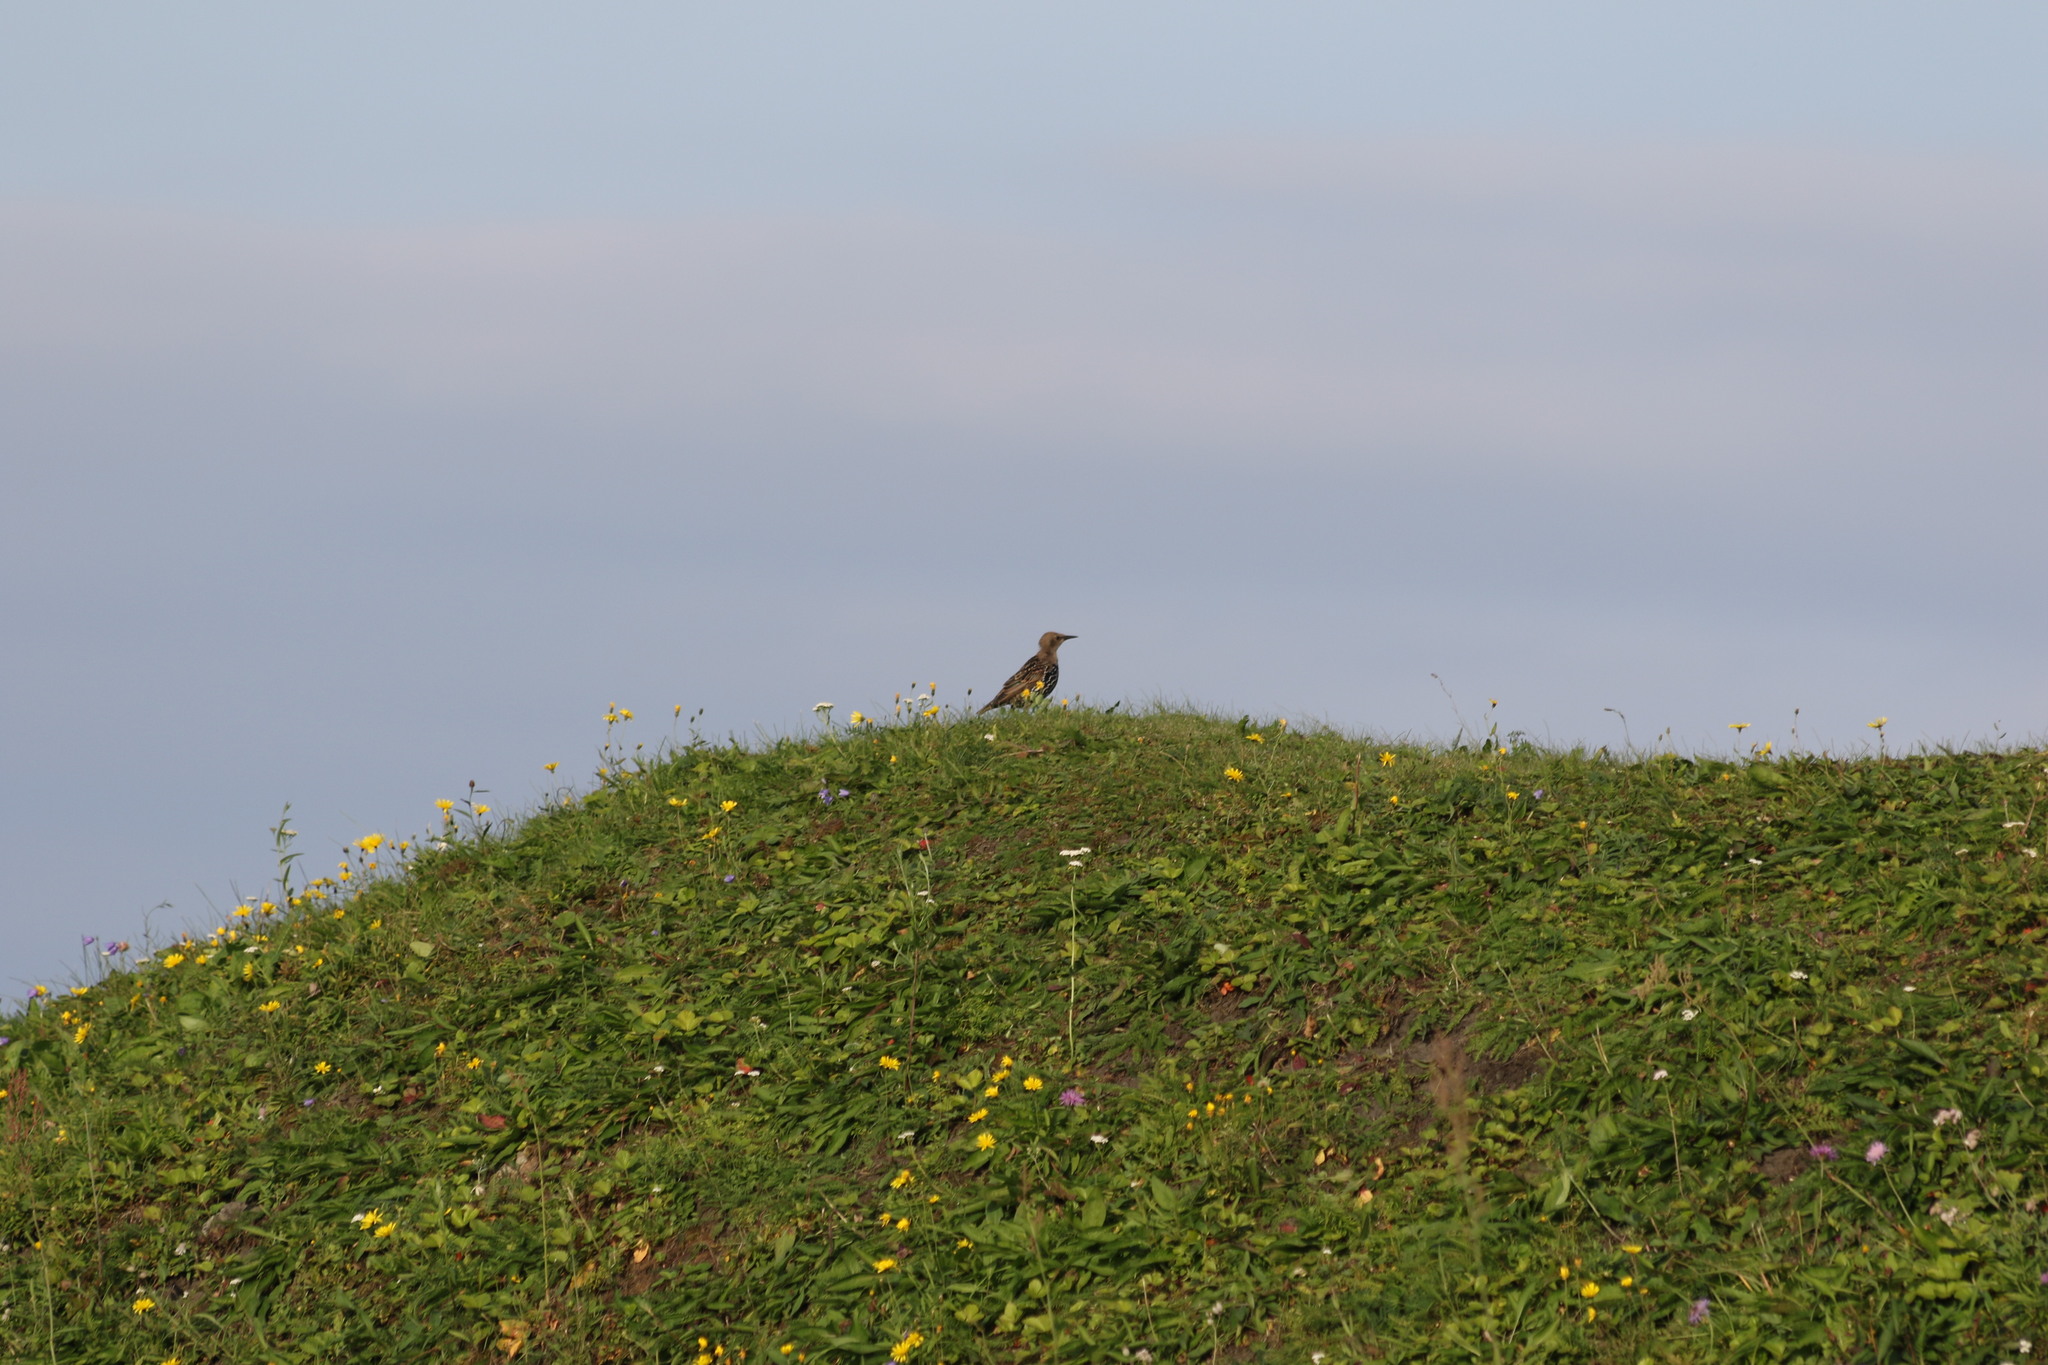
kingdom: Animalia
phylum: Chordata
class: Aves
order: Passeriformes
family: Sturnidae
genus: Sturnus
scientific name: Sturnus vulgaris
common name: Common starling
